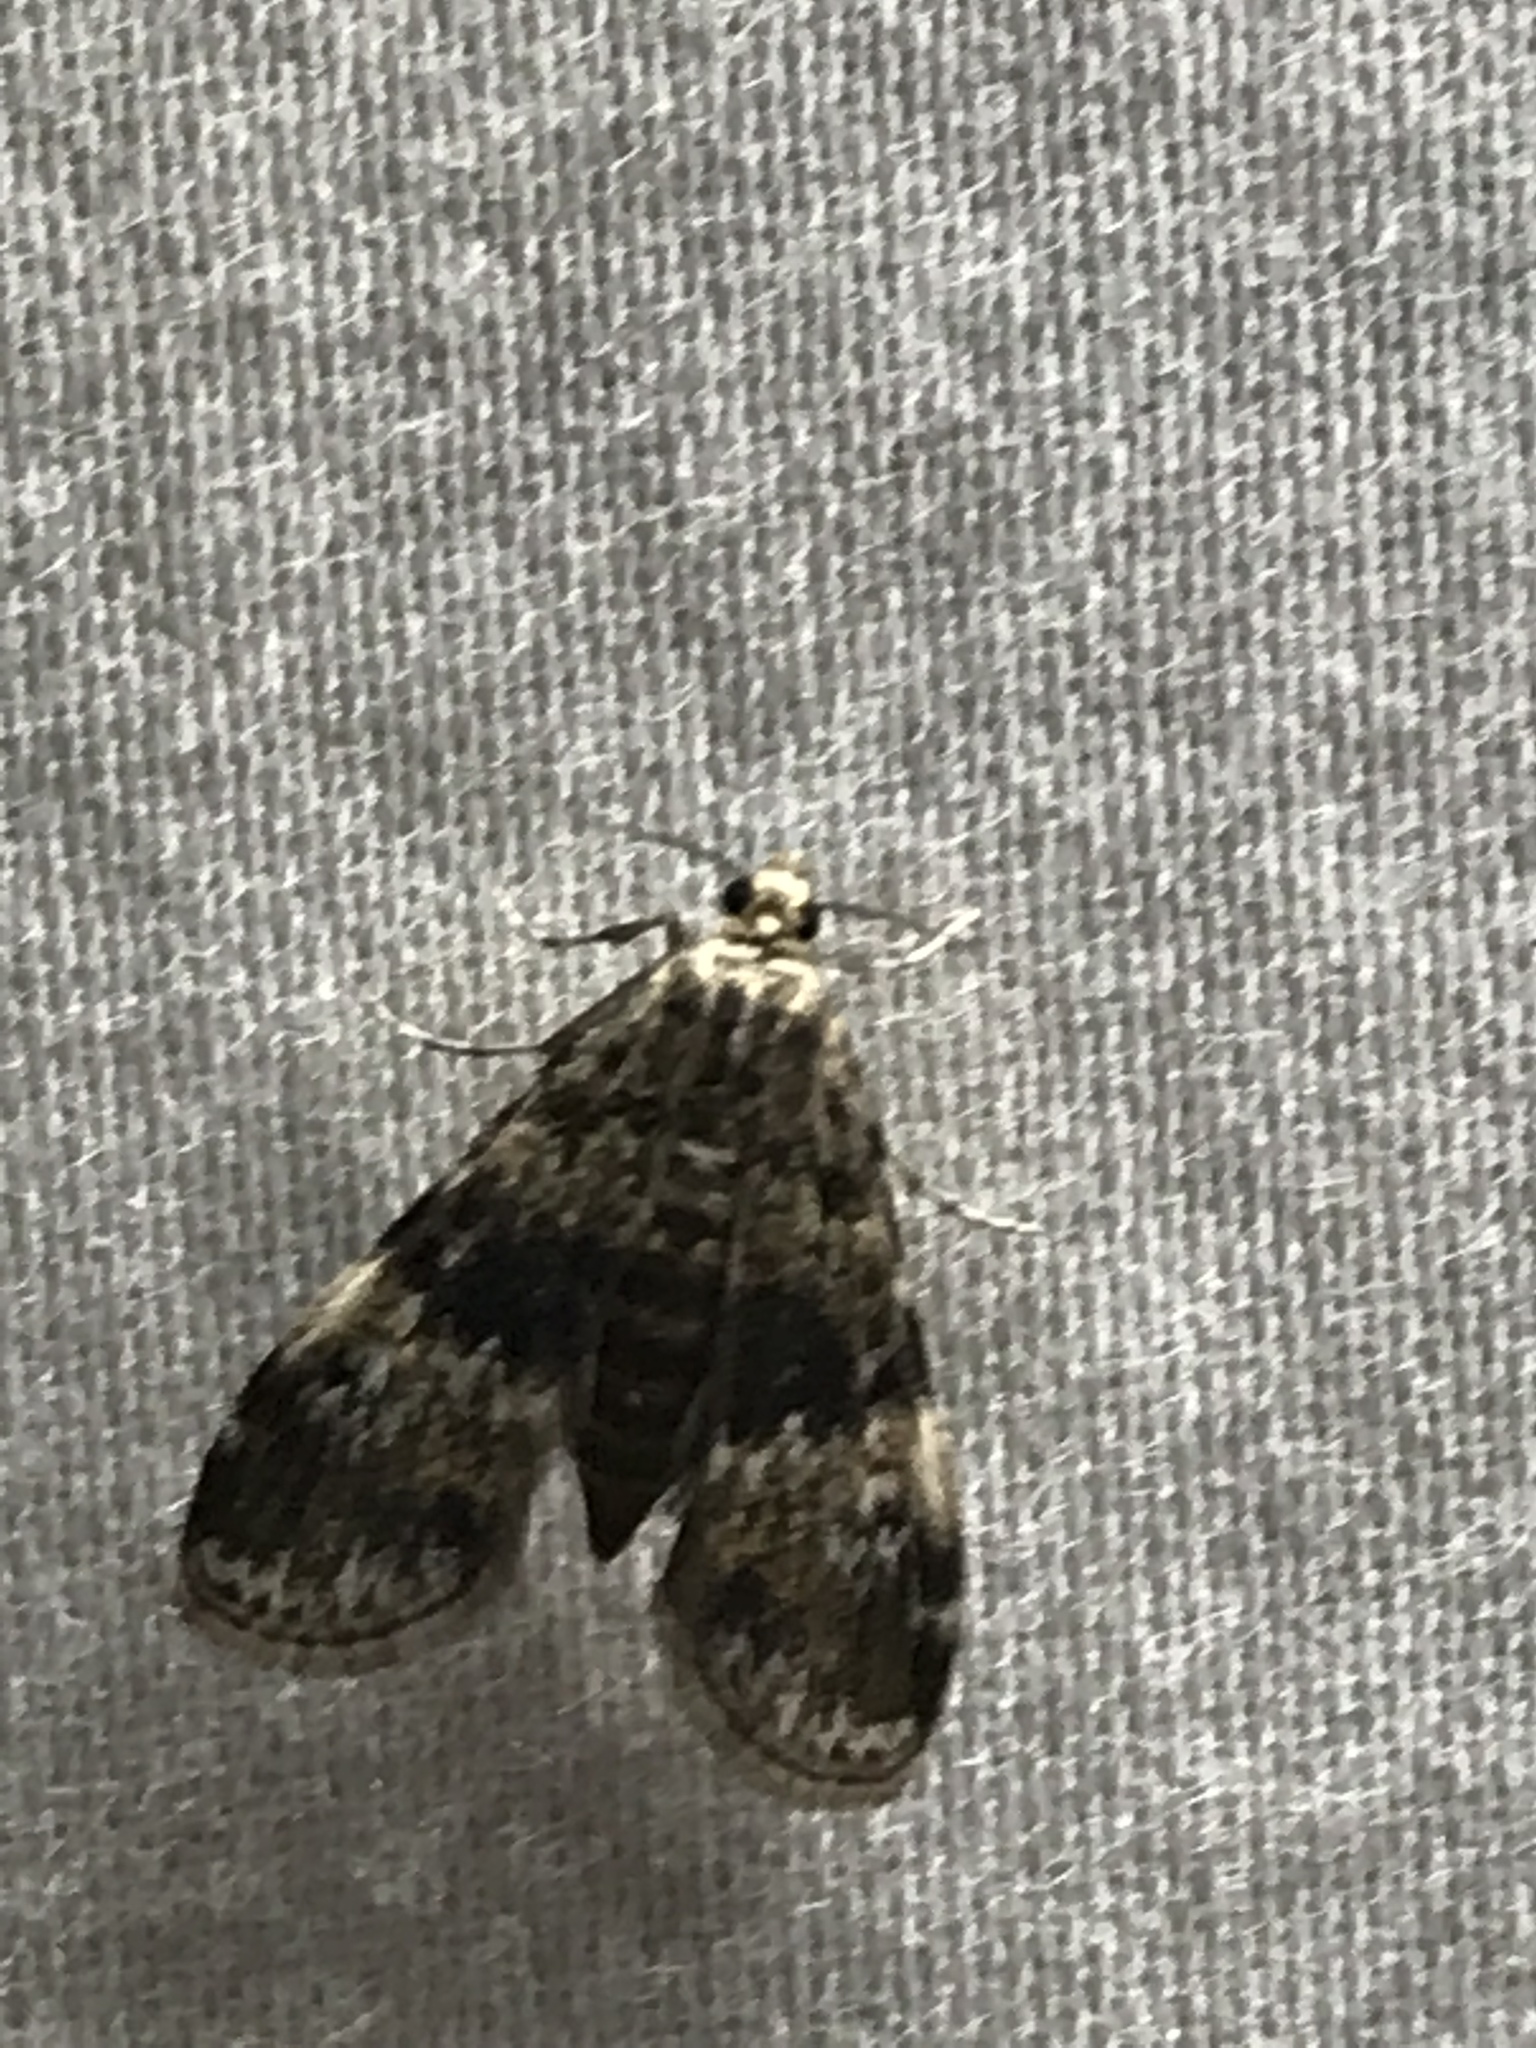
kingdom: Animalia
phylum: Arthropoda
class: Insecta
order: Lepidoptera
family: Crambidae
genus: Elophila
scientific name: Elophila obliteralis
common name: Waterlily leafcutter moth
